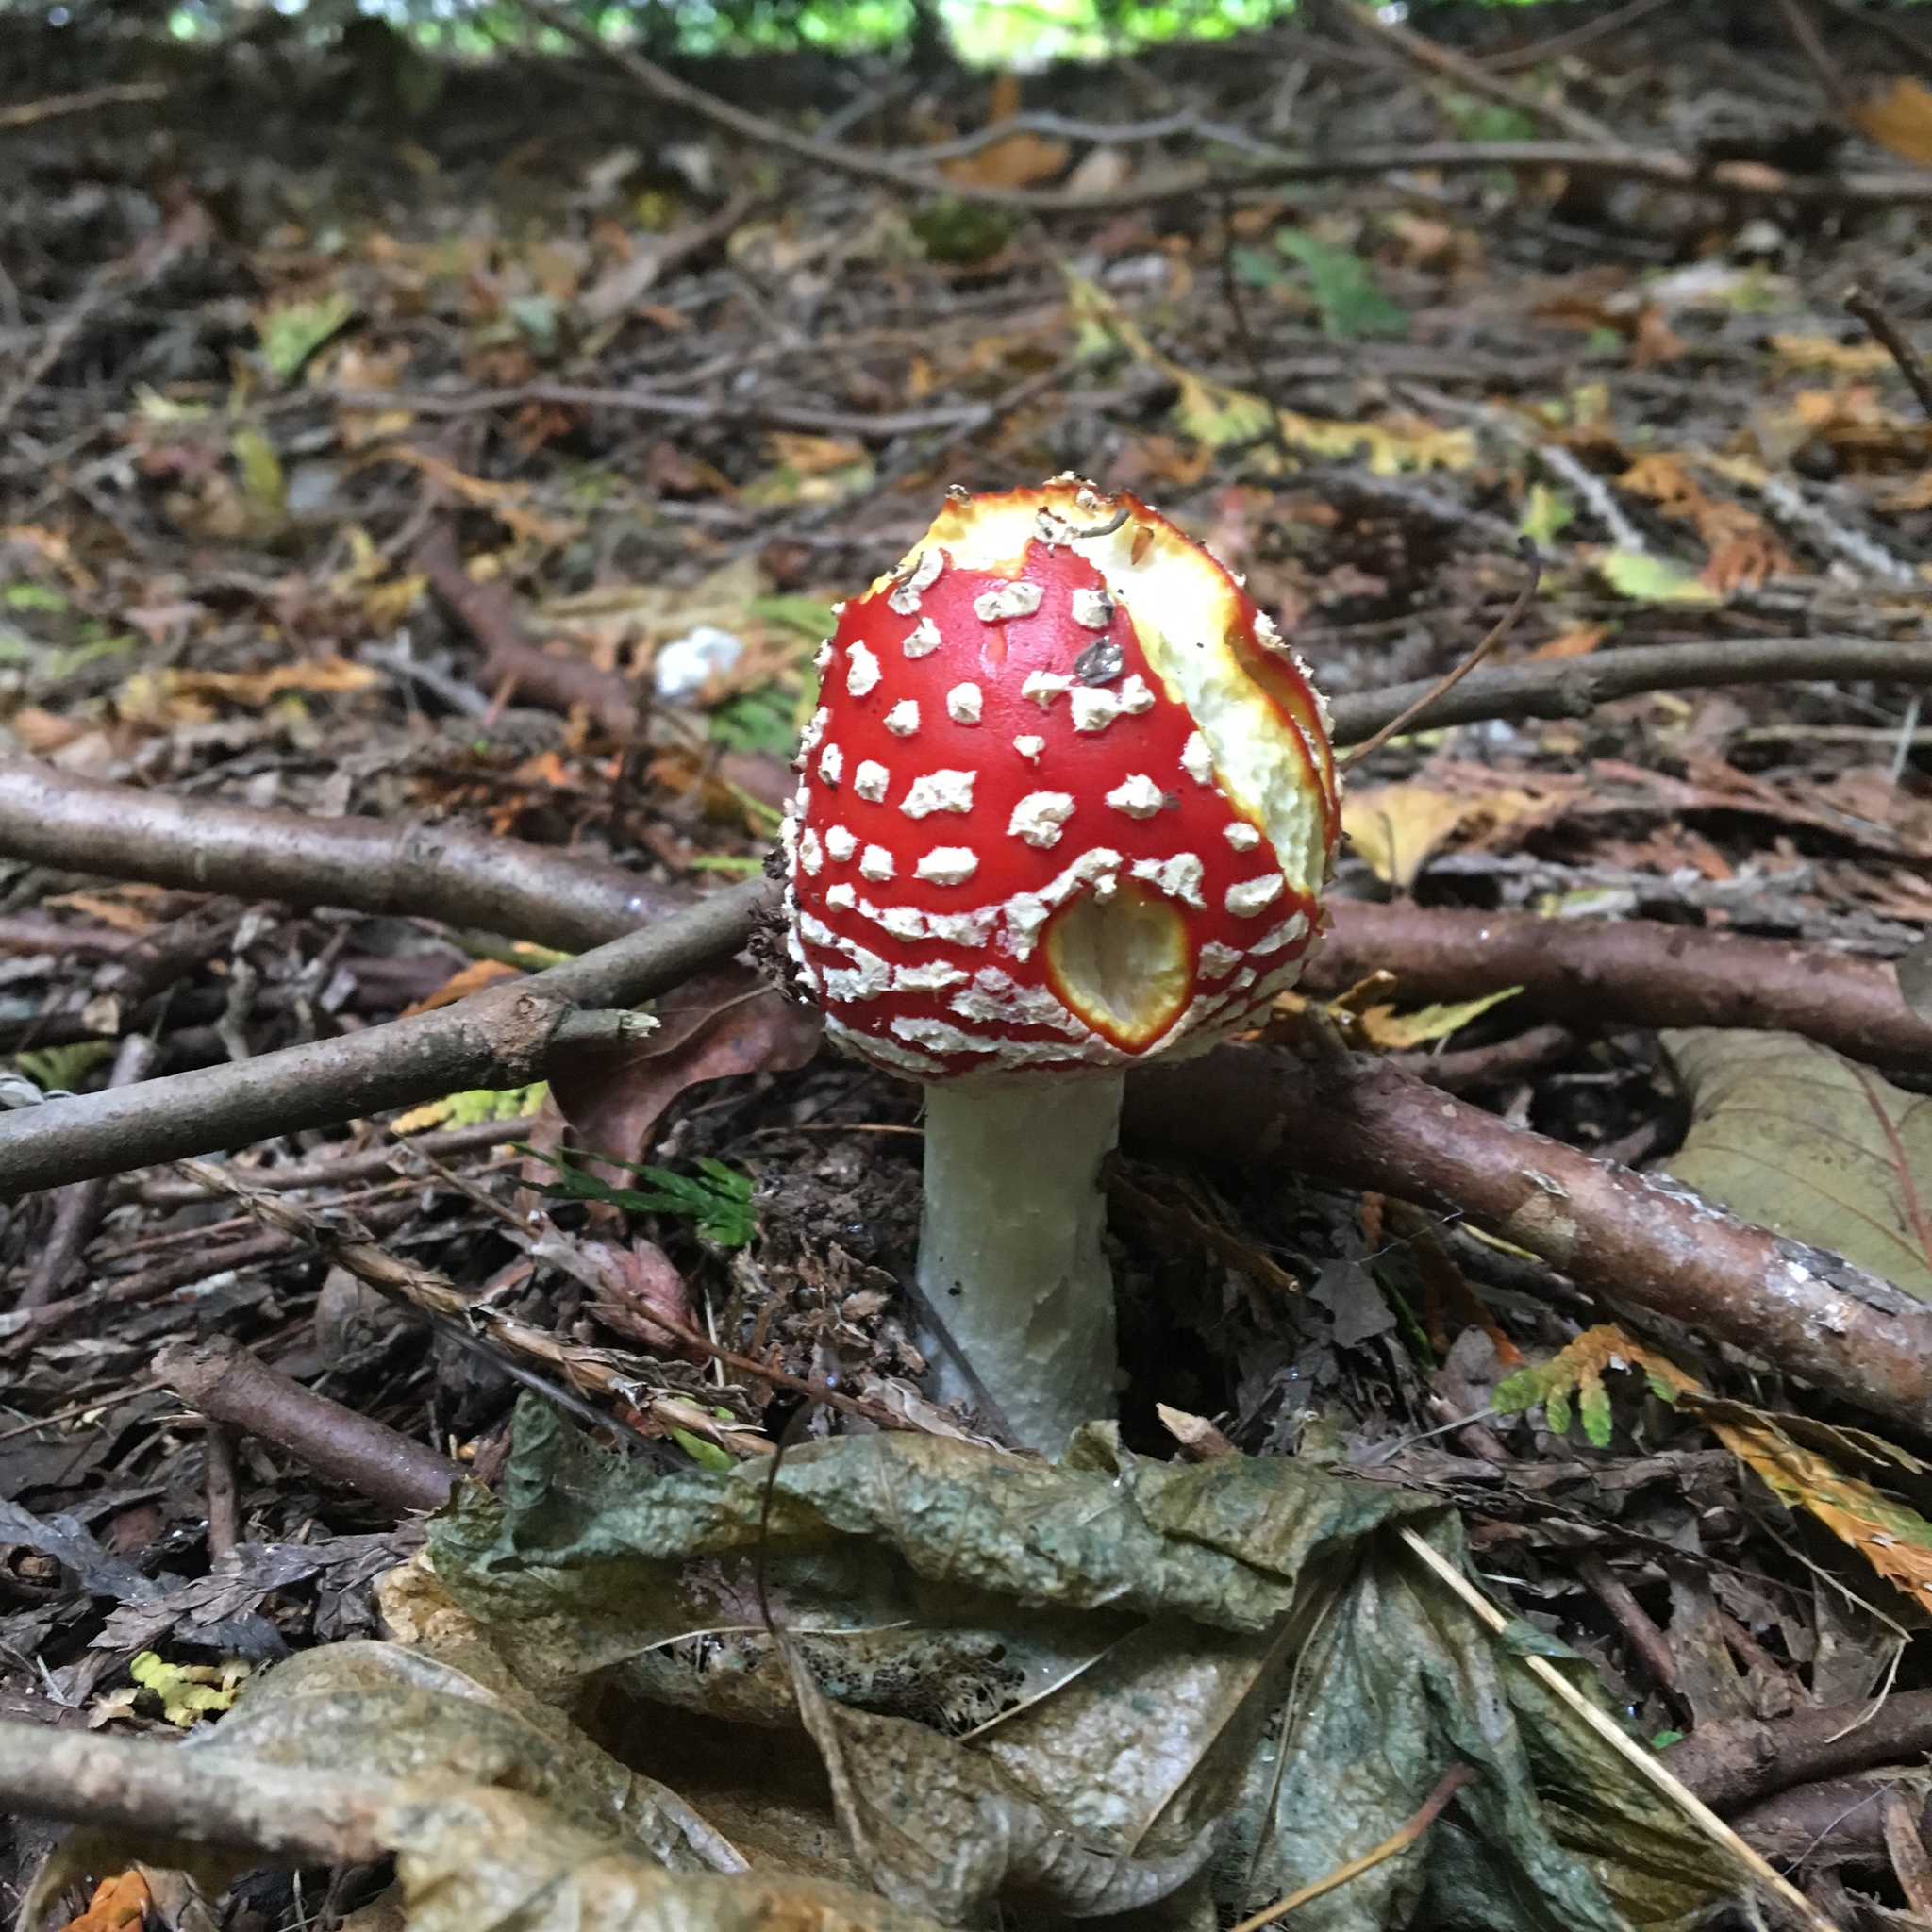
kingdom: Fungi
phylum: Basidiomycota
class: Agaricomycetes
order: Agaricales
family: Amanitaceae
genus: Amanita
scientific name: Amanita muscaria
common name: Fly agaric
